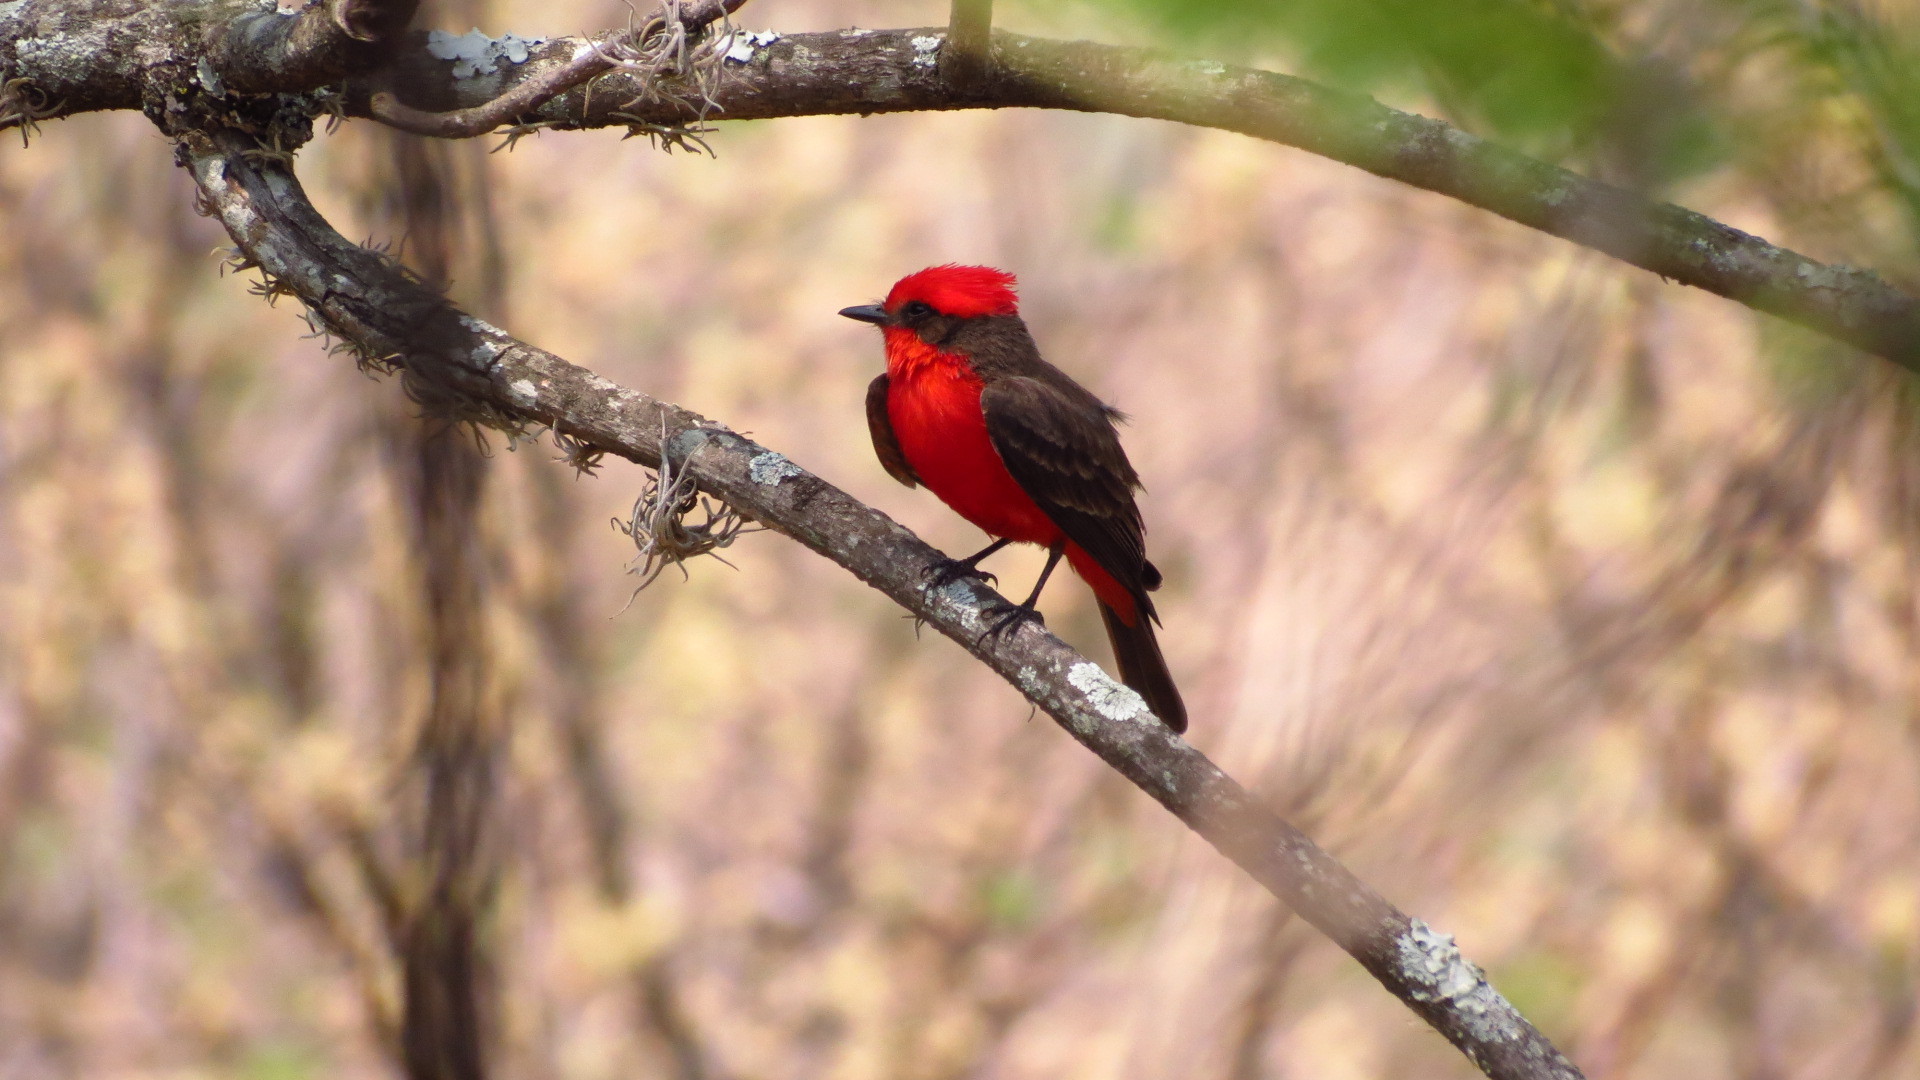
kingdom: Animalia
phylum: Chordata
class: Aves
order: Passeriformes
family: Tyrannidae
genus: Pyrocephalus
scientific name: Pyrocephalus rubinus
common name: Vermilion flycatcher
